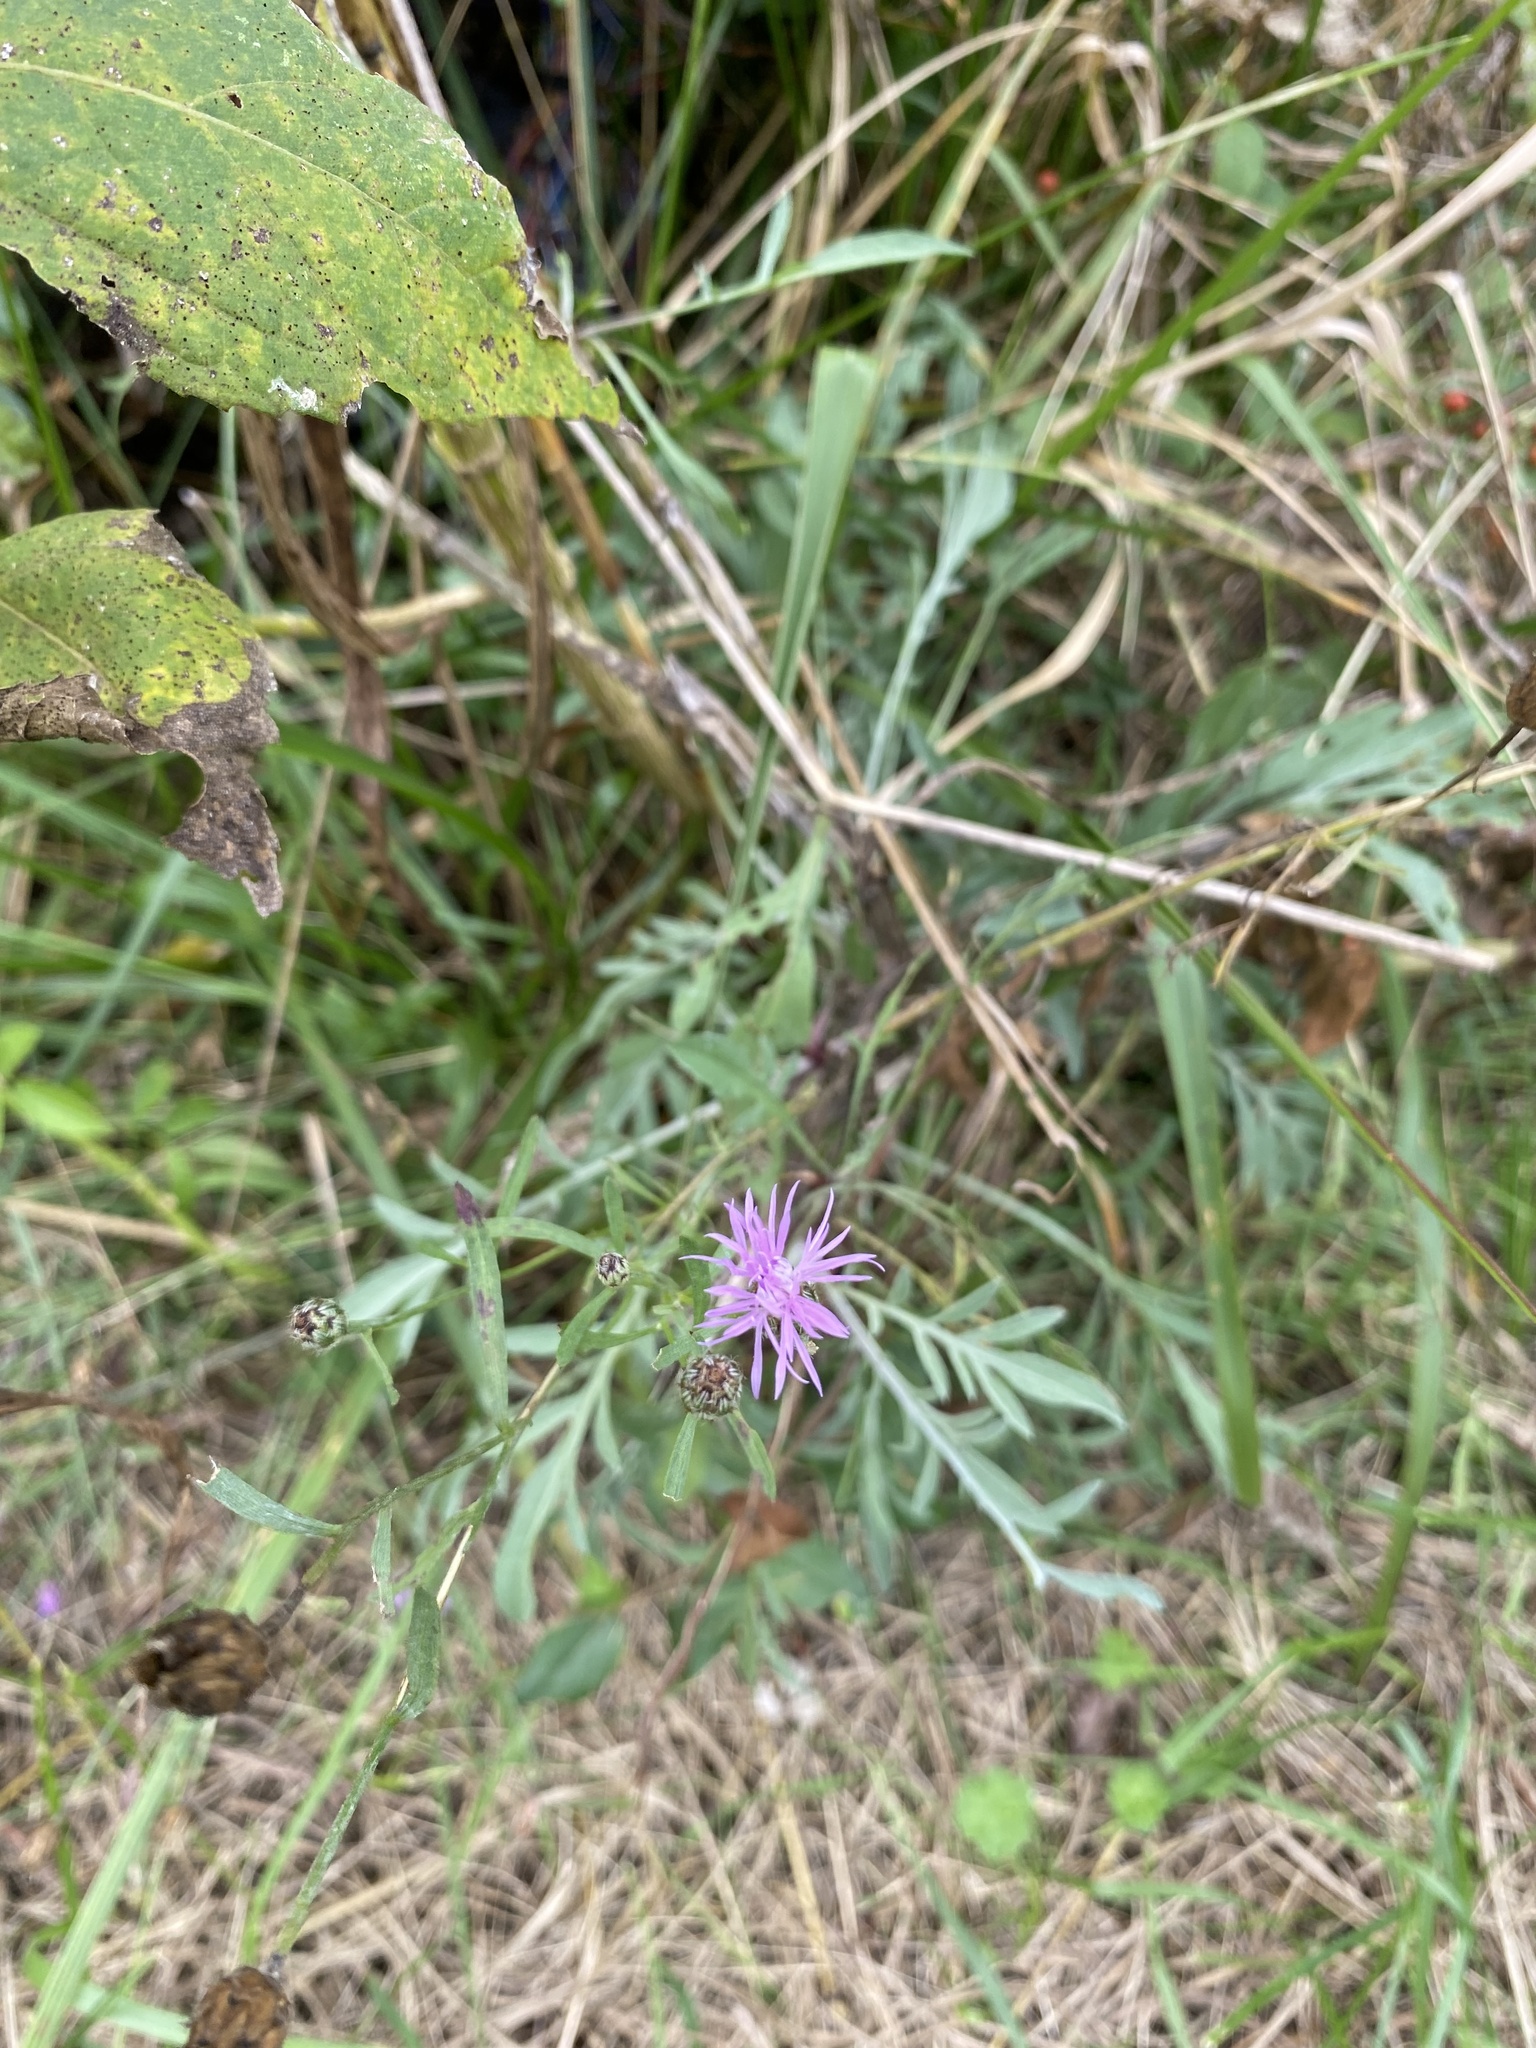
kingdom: Plantae
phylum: Tracheophyta
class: Magnoliopsida
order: Asterales
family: Asteraceae
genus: Centaurea
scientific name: Centaurea stoebe
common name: Spotted knapweed
